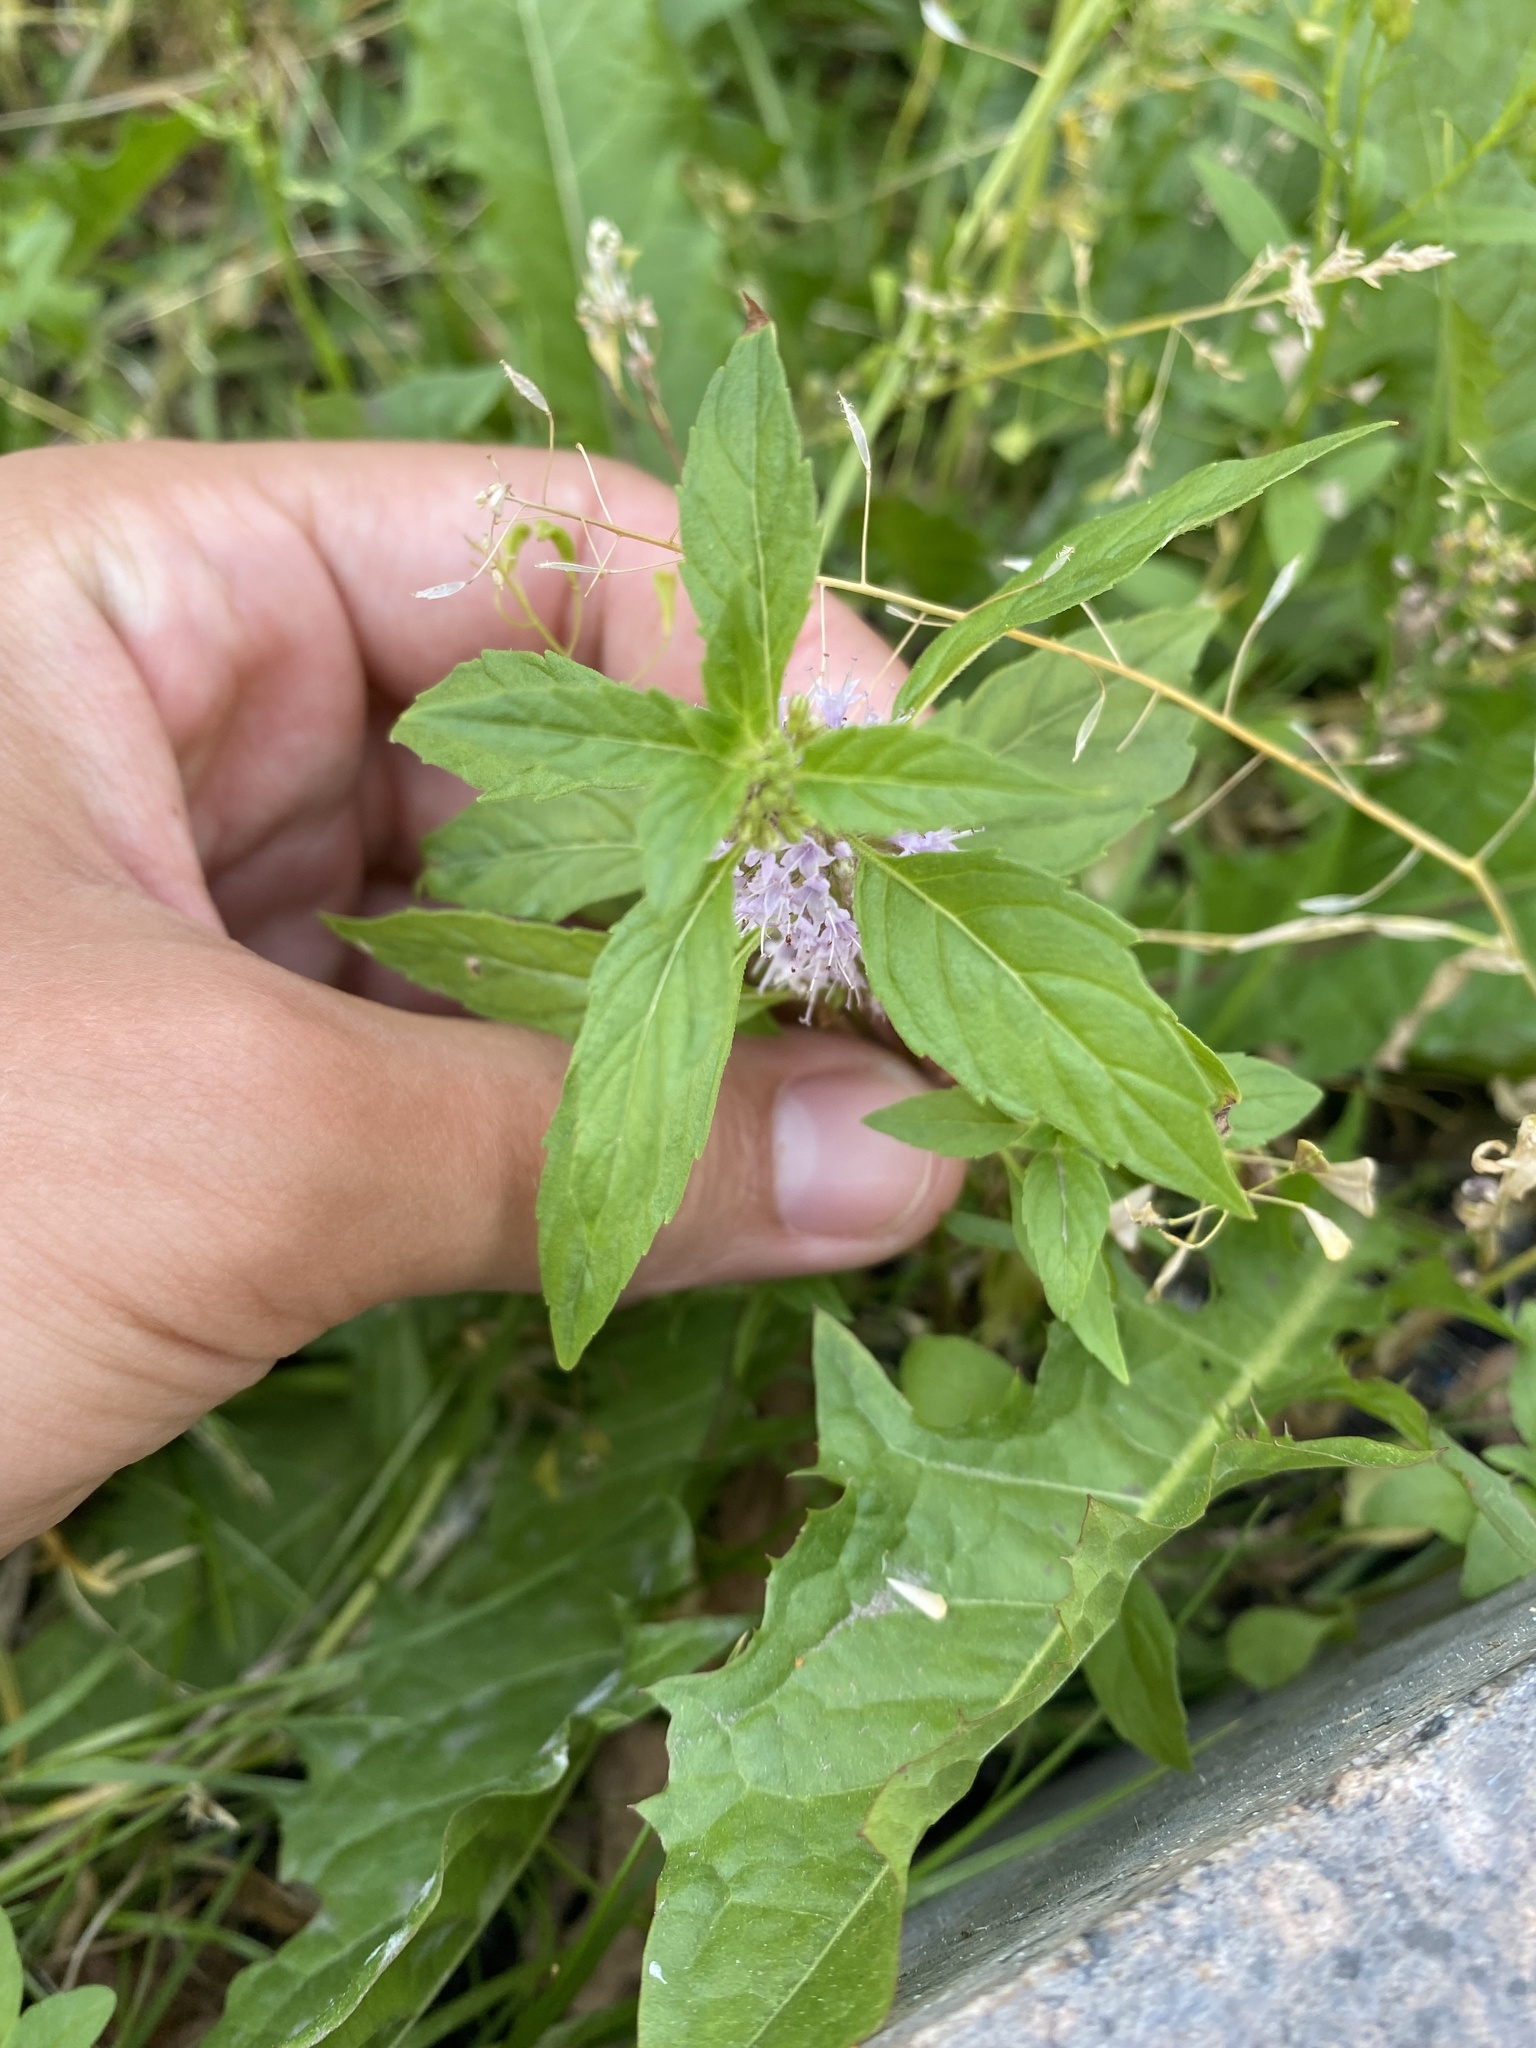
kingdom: Plantae
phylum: Tracheophyta
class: Magnoliopsida
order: Lamiales
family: Lamiaceae
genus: Mentha
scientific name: Mentha arvensis
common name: Corn mint
